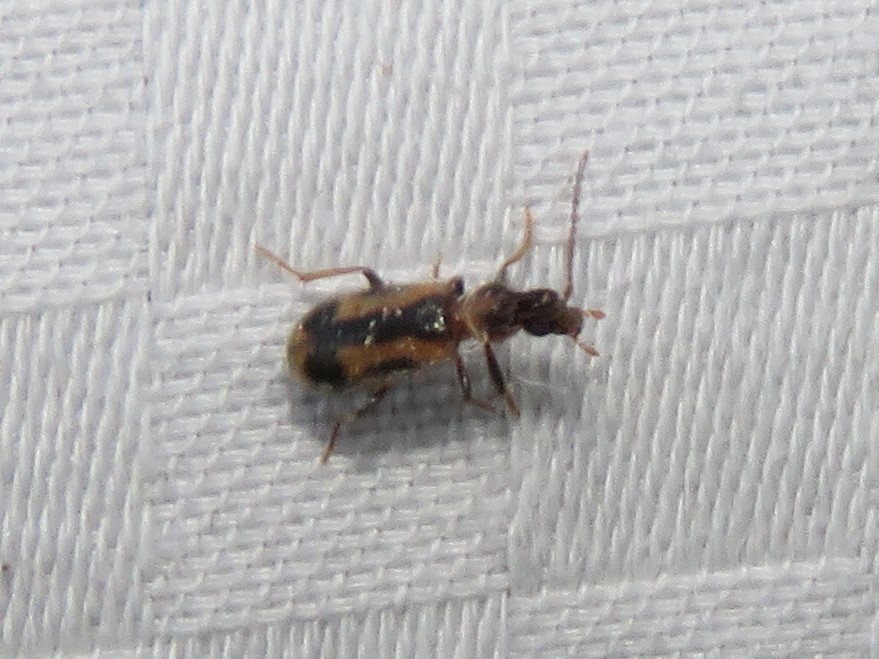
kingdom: Animalia
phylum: Arthropoda
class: Insecta
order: Coleoptera
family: Anthicidae
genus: Notoxus
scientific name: Notoxus anchora
